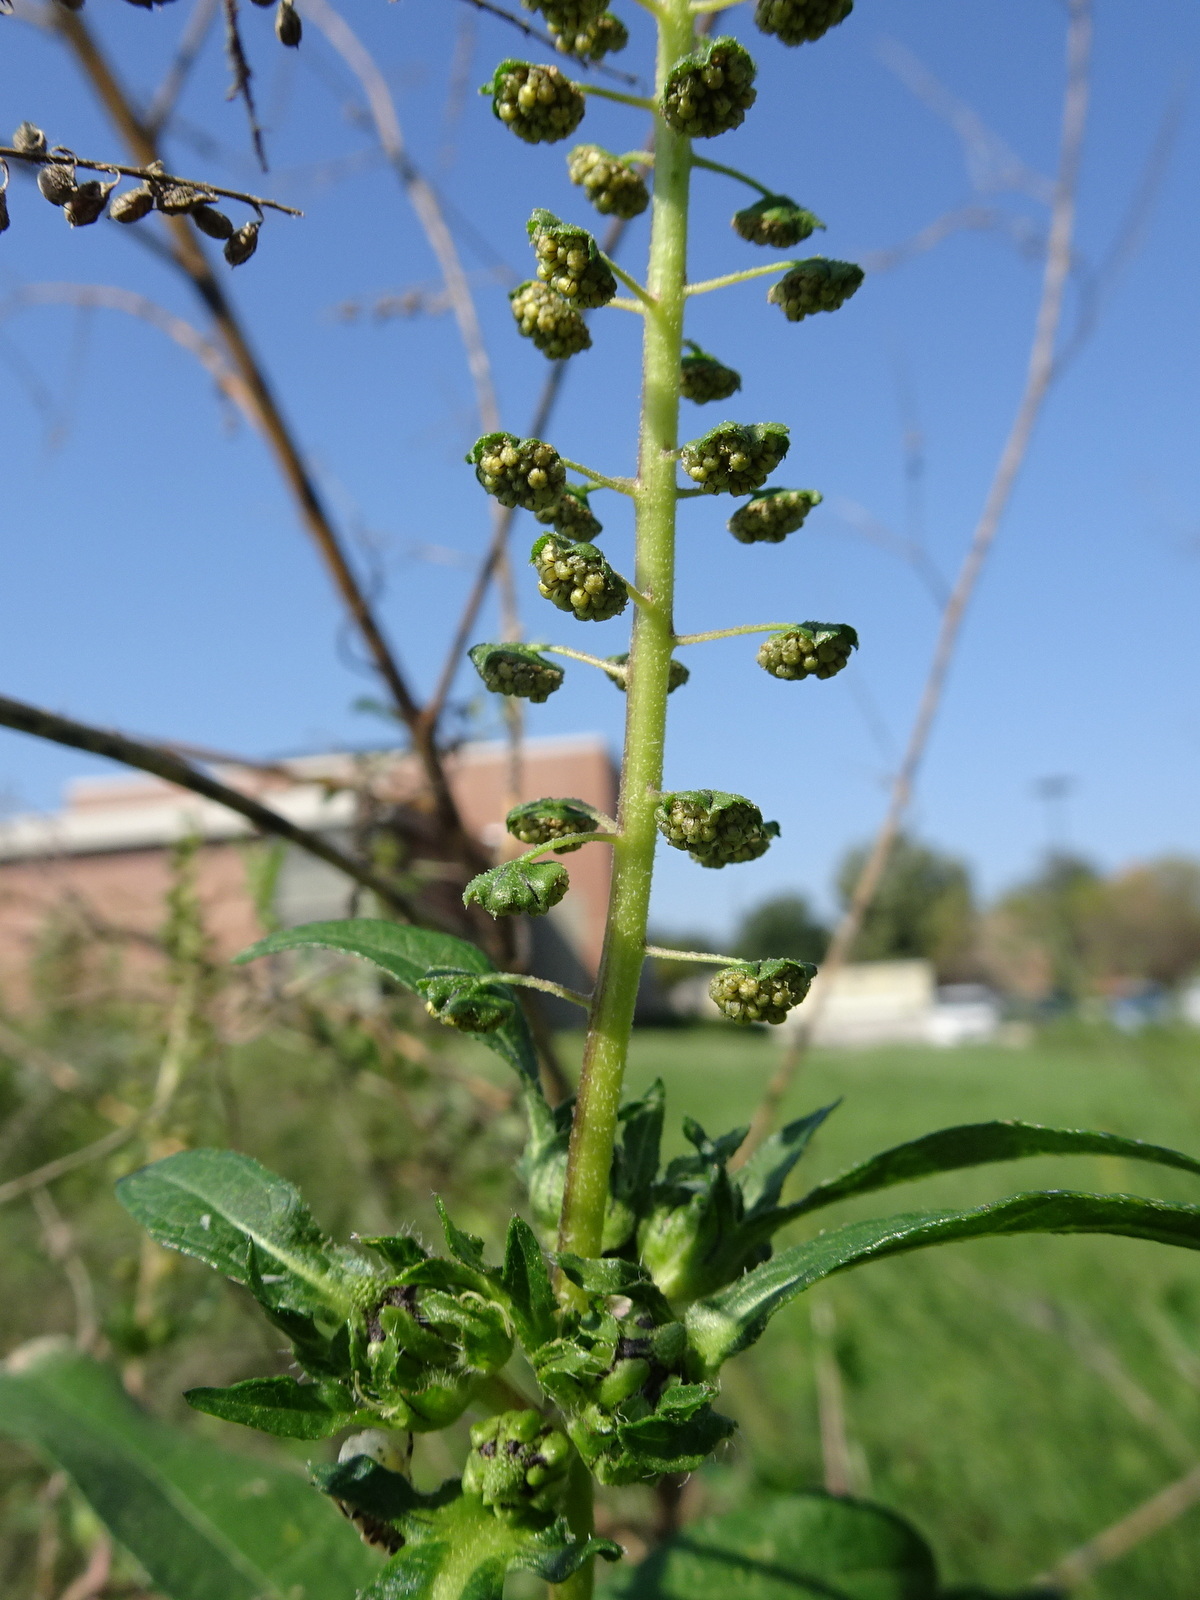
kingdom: Plantae
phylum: Tracheophyta
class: Magnoliopsida
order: Asterales
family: Asteraceae
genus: Ambrosia
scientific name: Ambrosia trifida
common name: Giant ragweed
